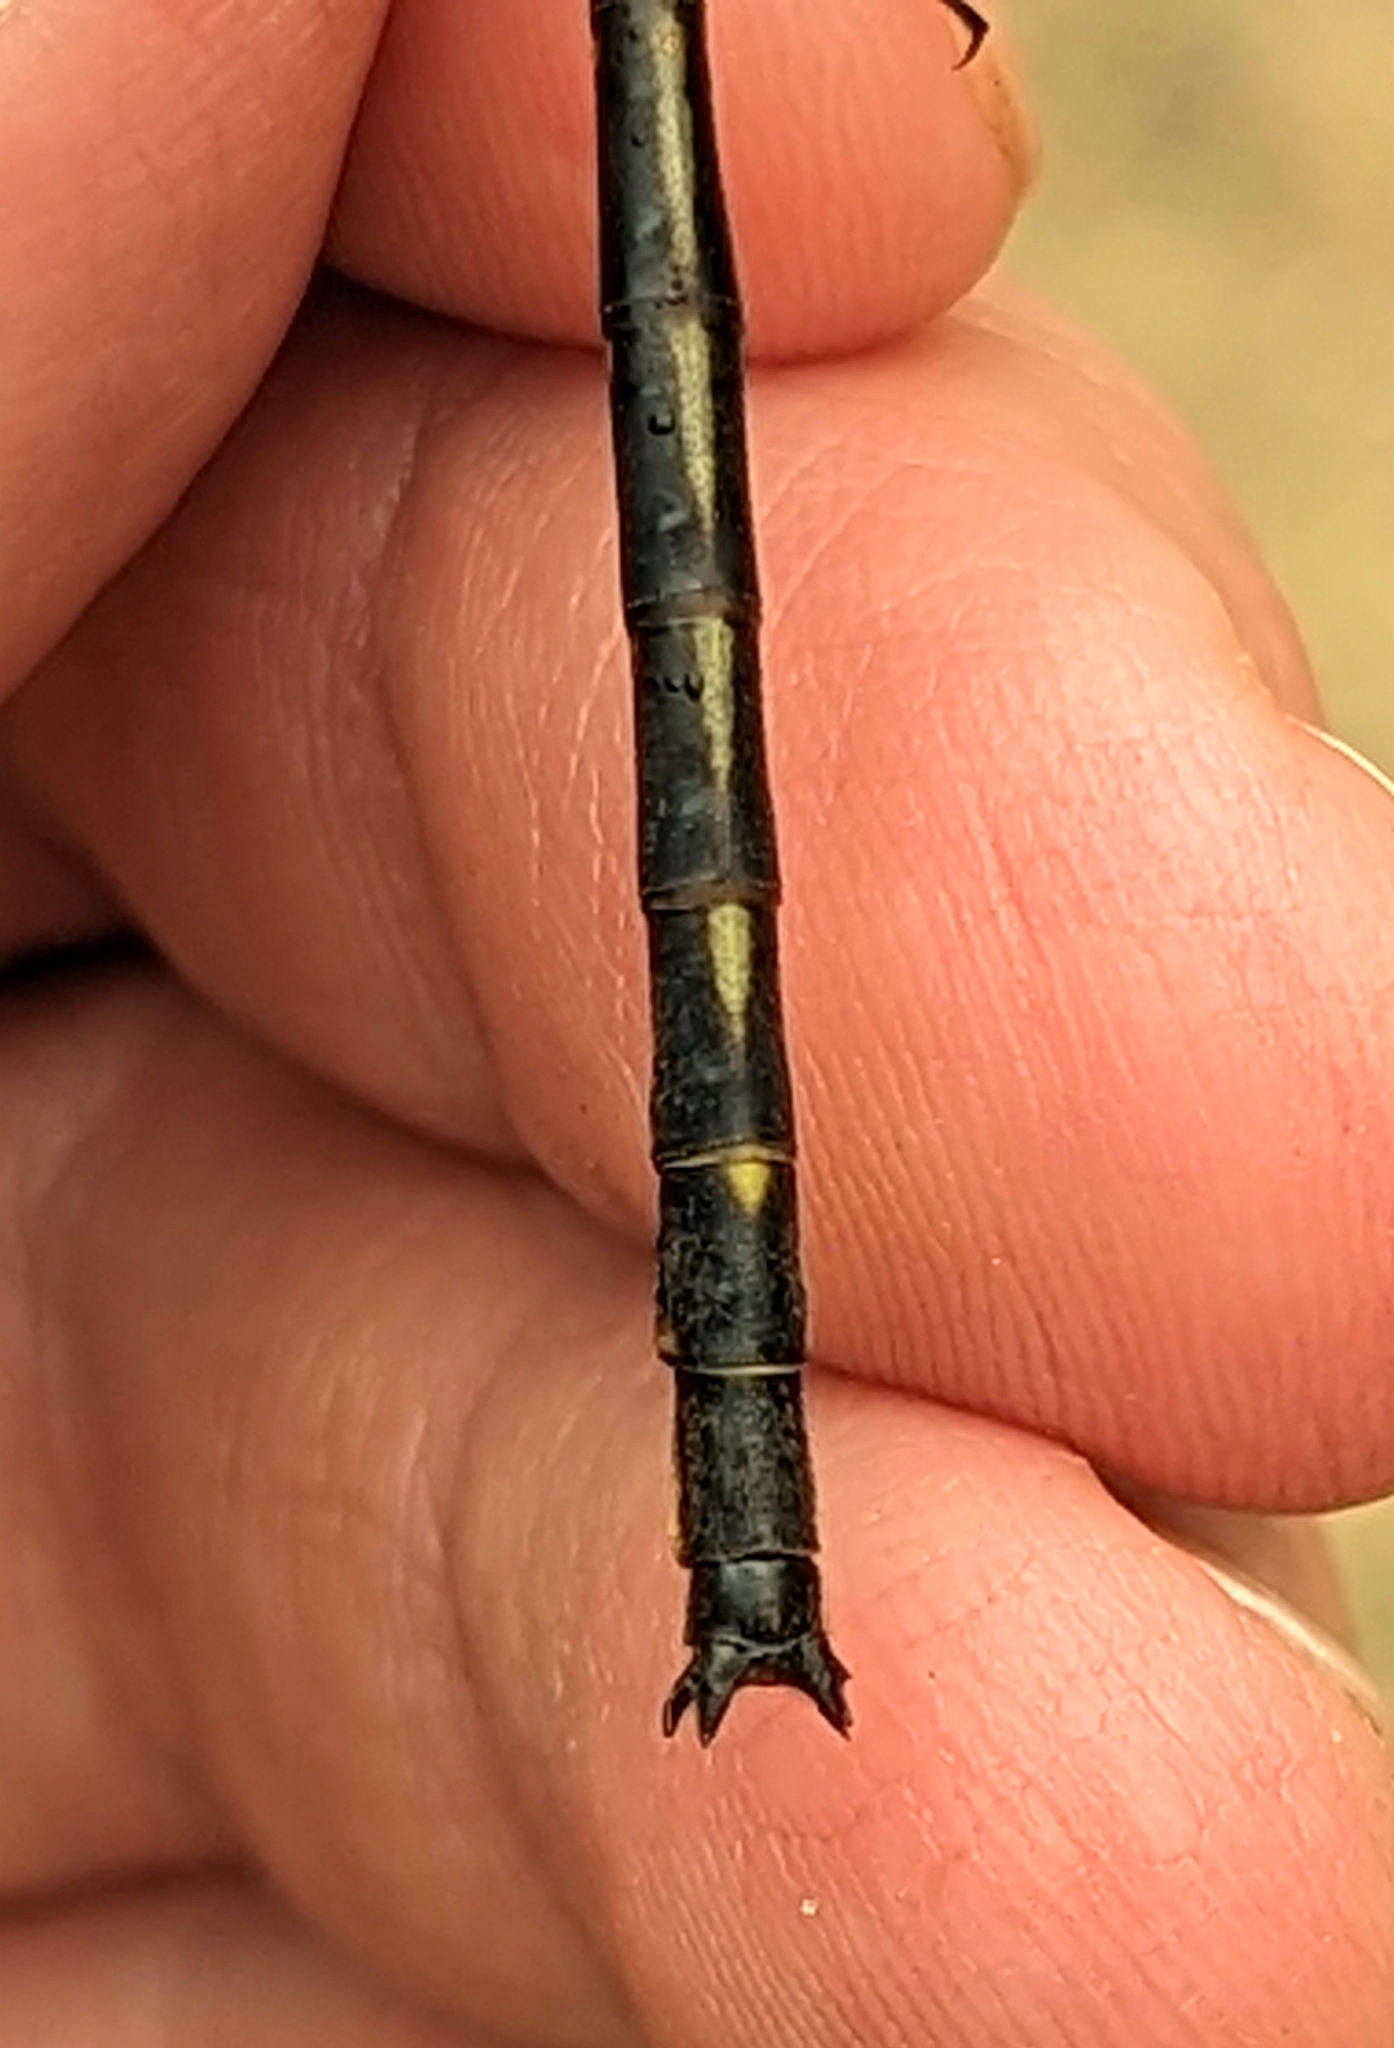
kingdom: Animalia
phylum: Arthropoda
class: Insecta
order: Odonata
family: Gomphidae
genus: Phanogomphus
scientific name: Phanogomphus spicatus
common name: Dusky clubtail
